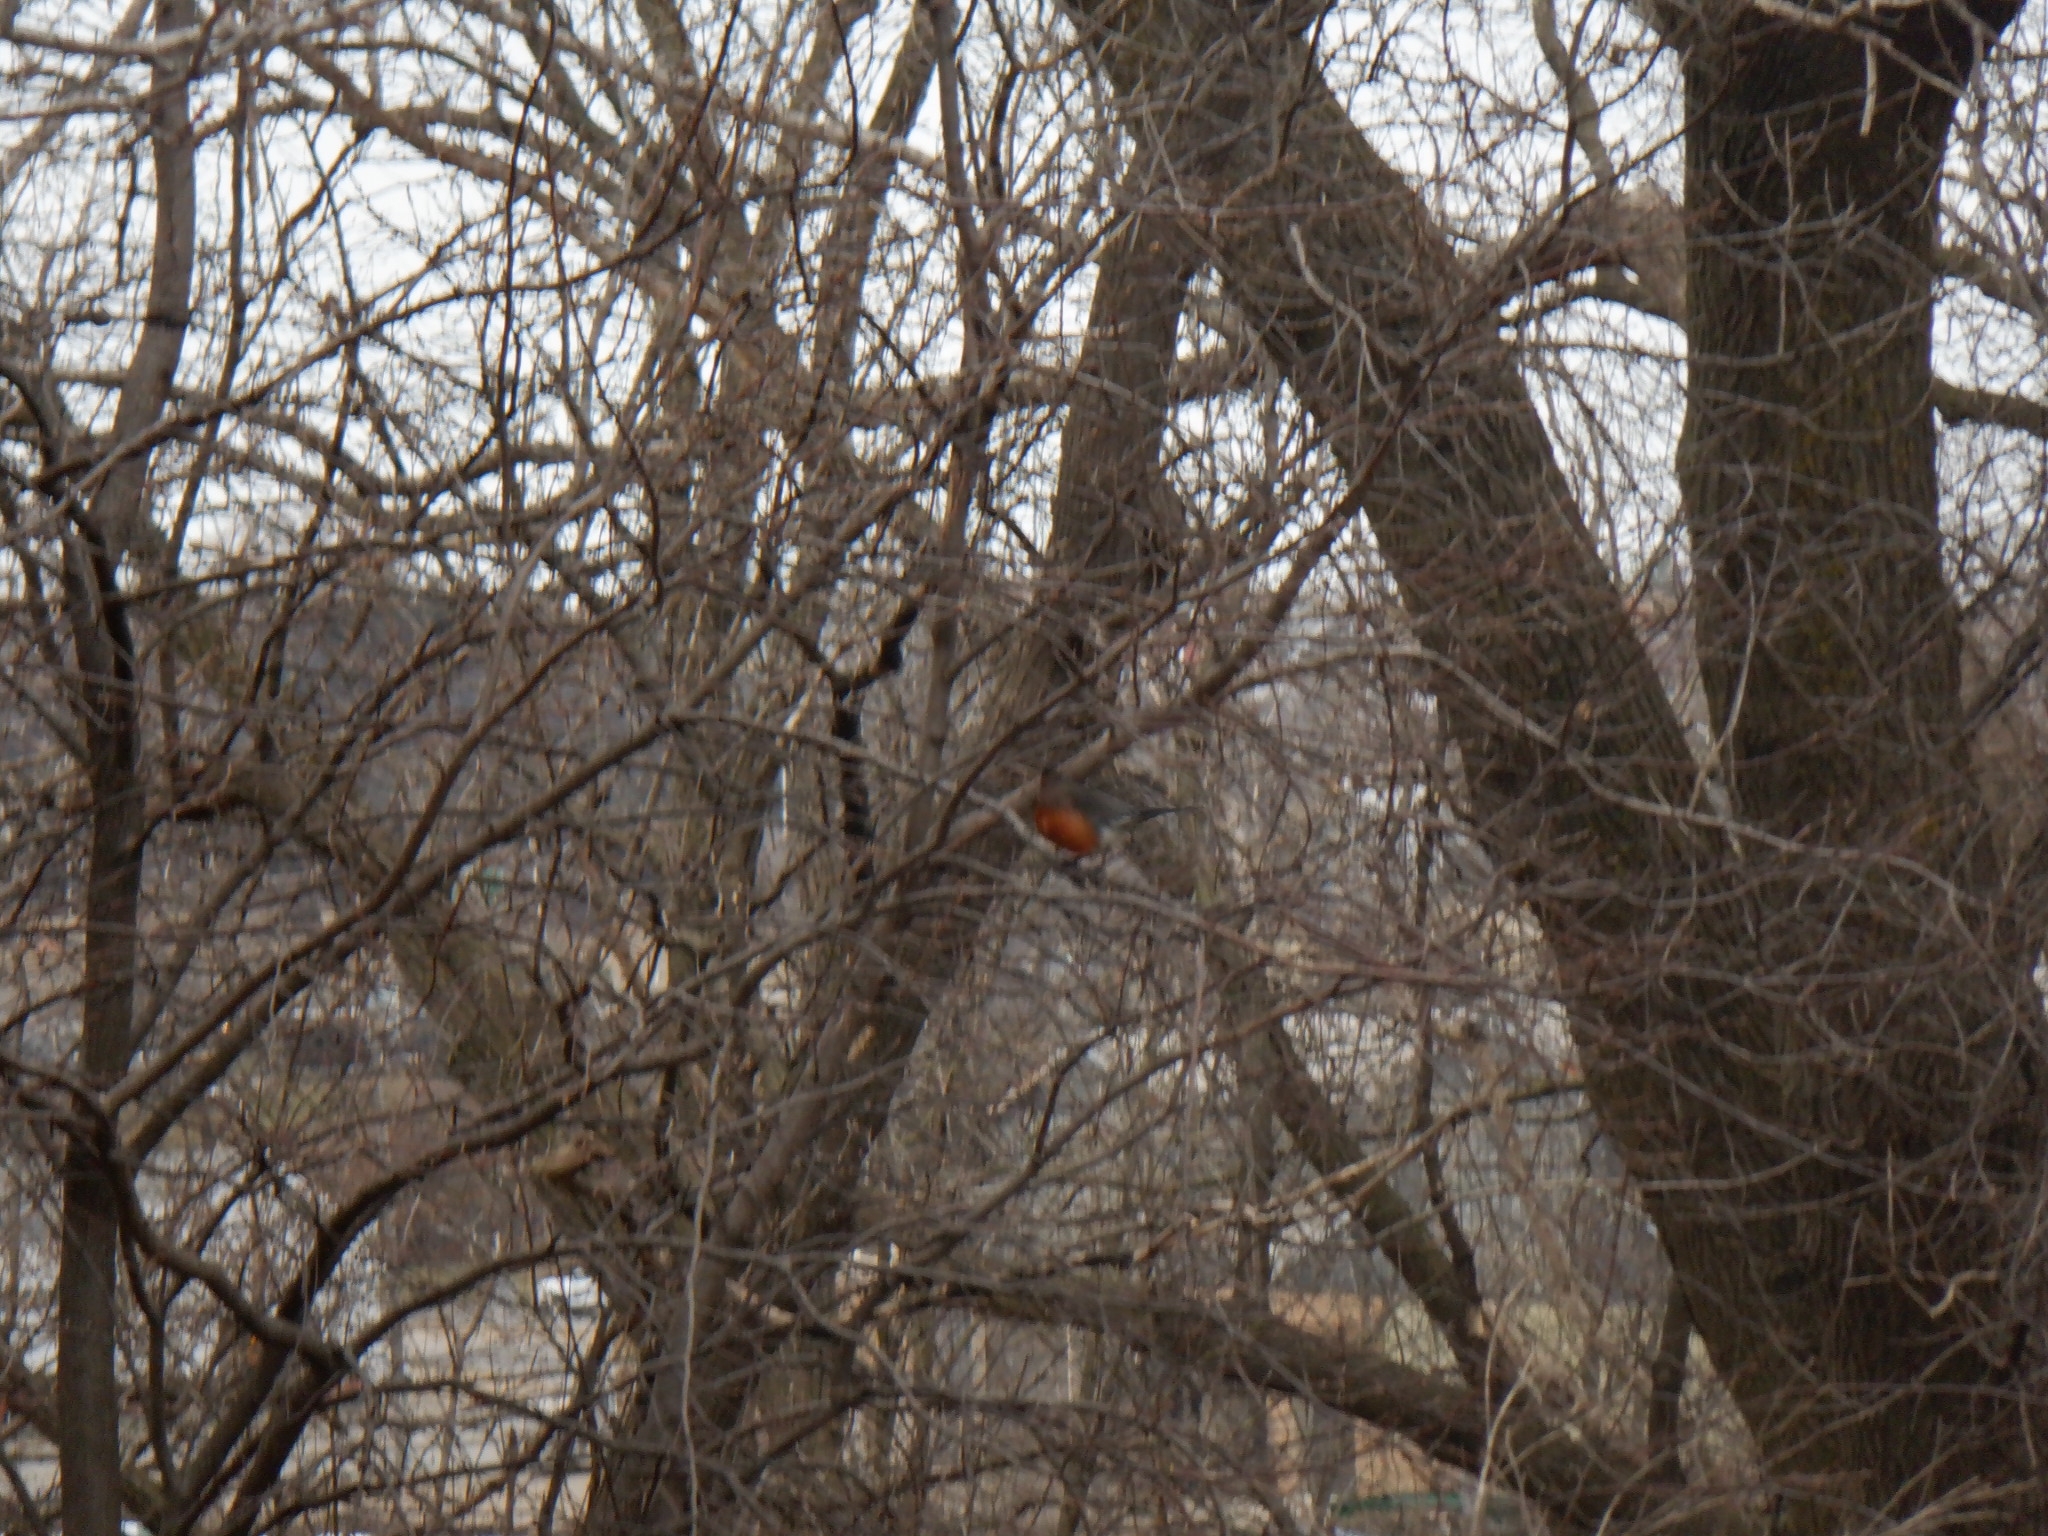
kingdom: Animalia
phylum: Chordata
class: Aves
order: Passeriformes
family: Turdidae
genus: Turdus
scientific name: Turdus migratorius
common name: American robin
